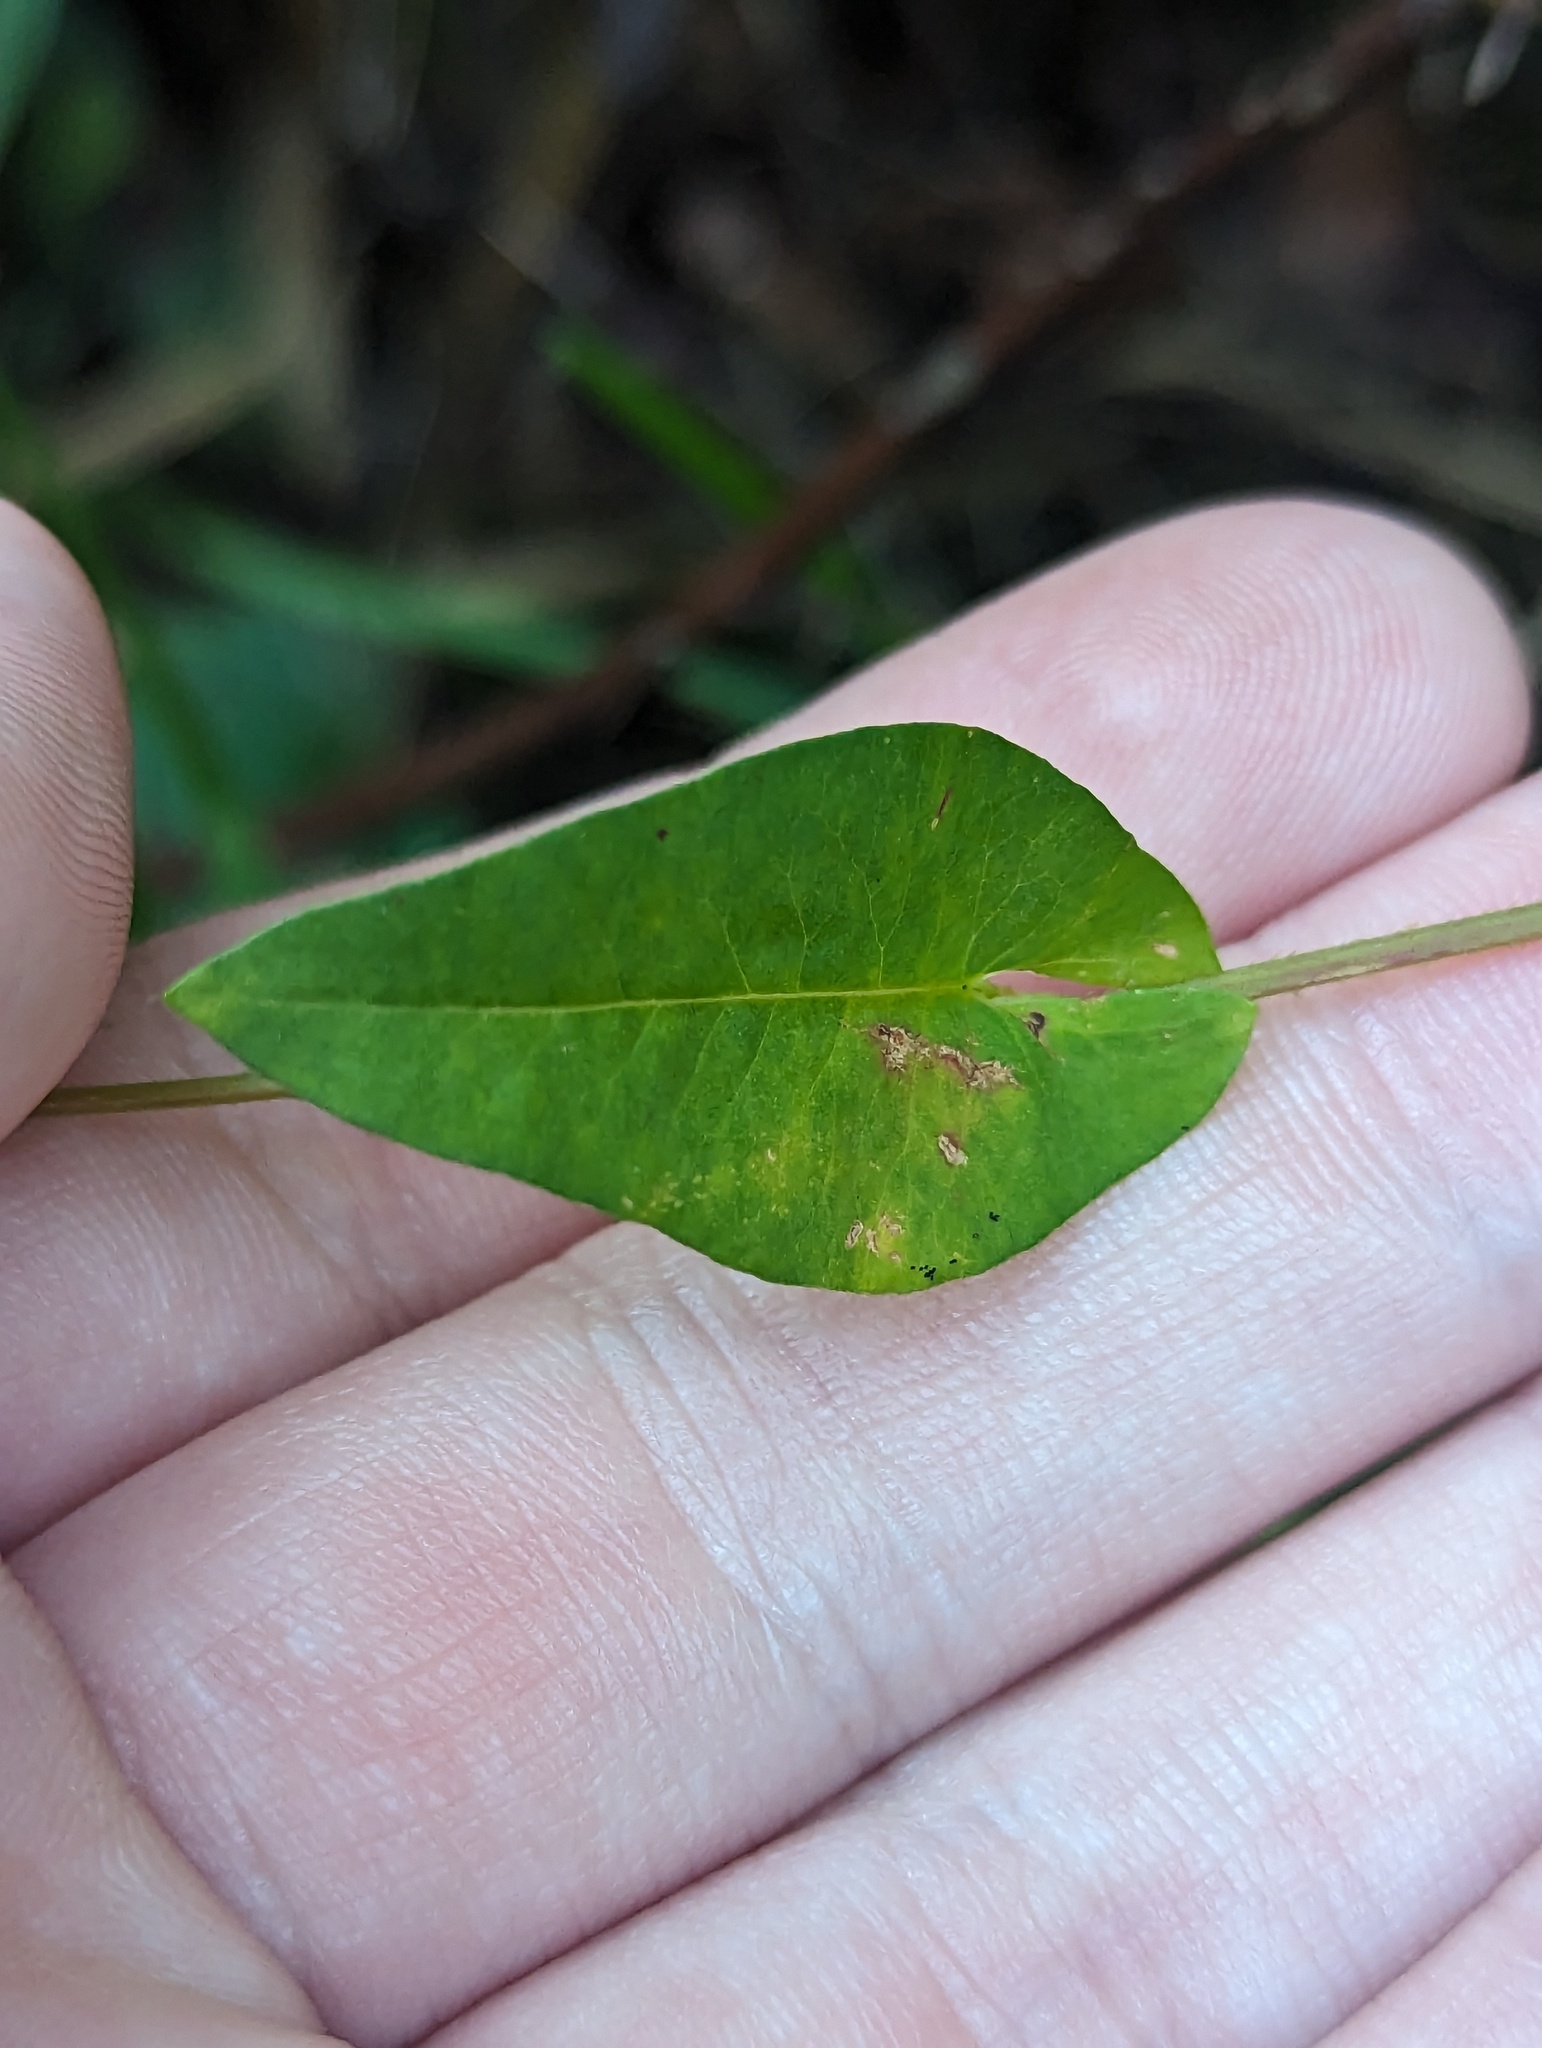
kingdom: Plantae
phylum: Tracheophyta
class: Magnoliopsida
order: Caryophyllales
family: Polygonaceae
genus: Persicaria
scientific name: Persicaria sagittata
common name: American tearthumb
